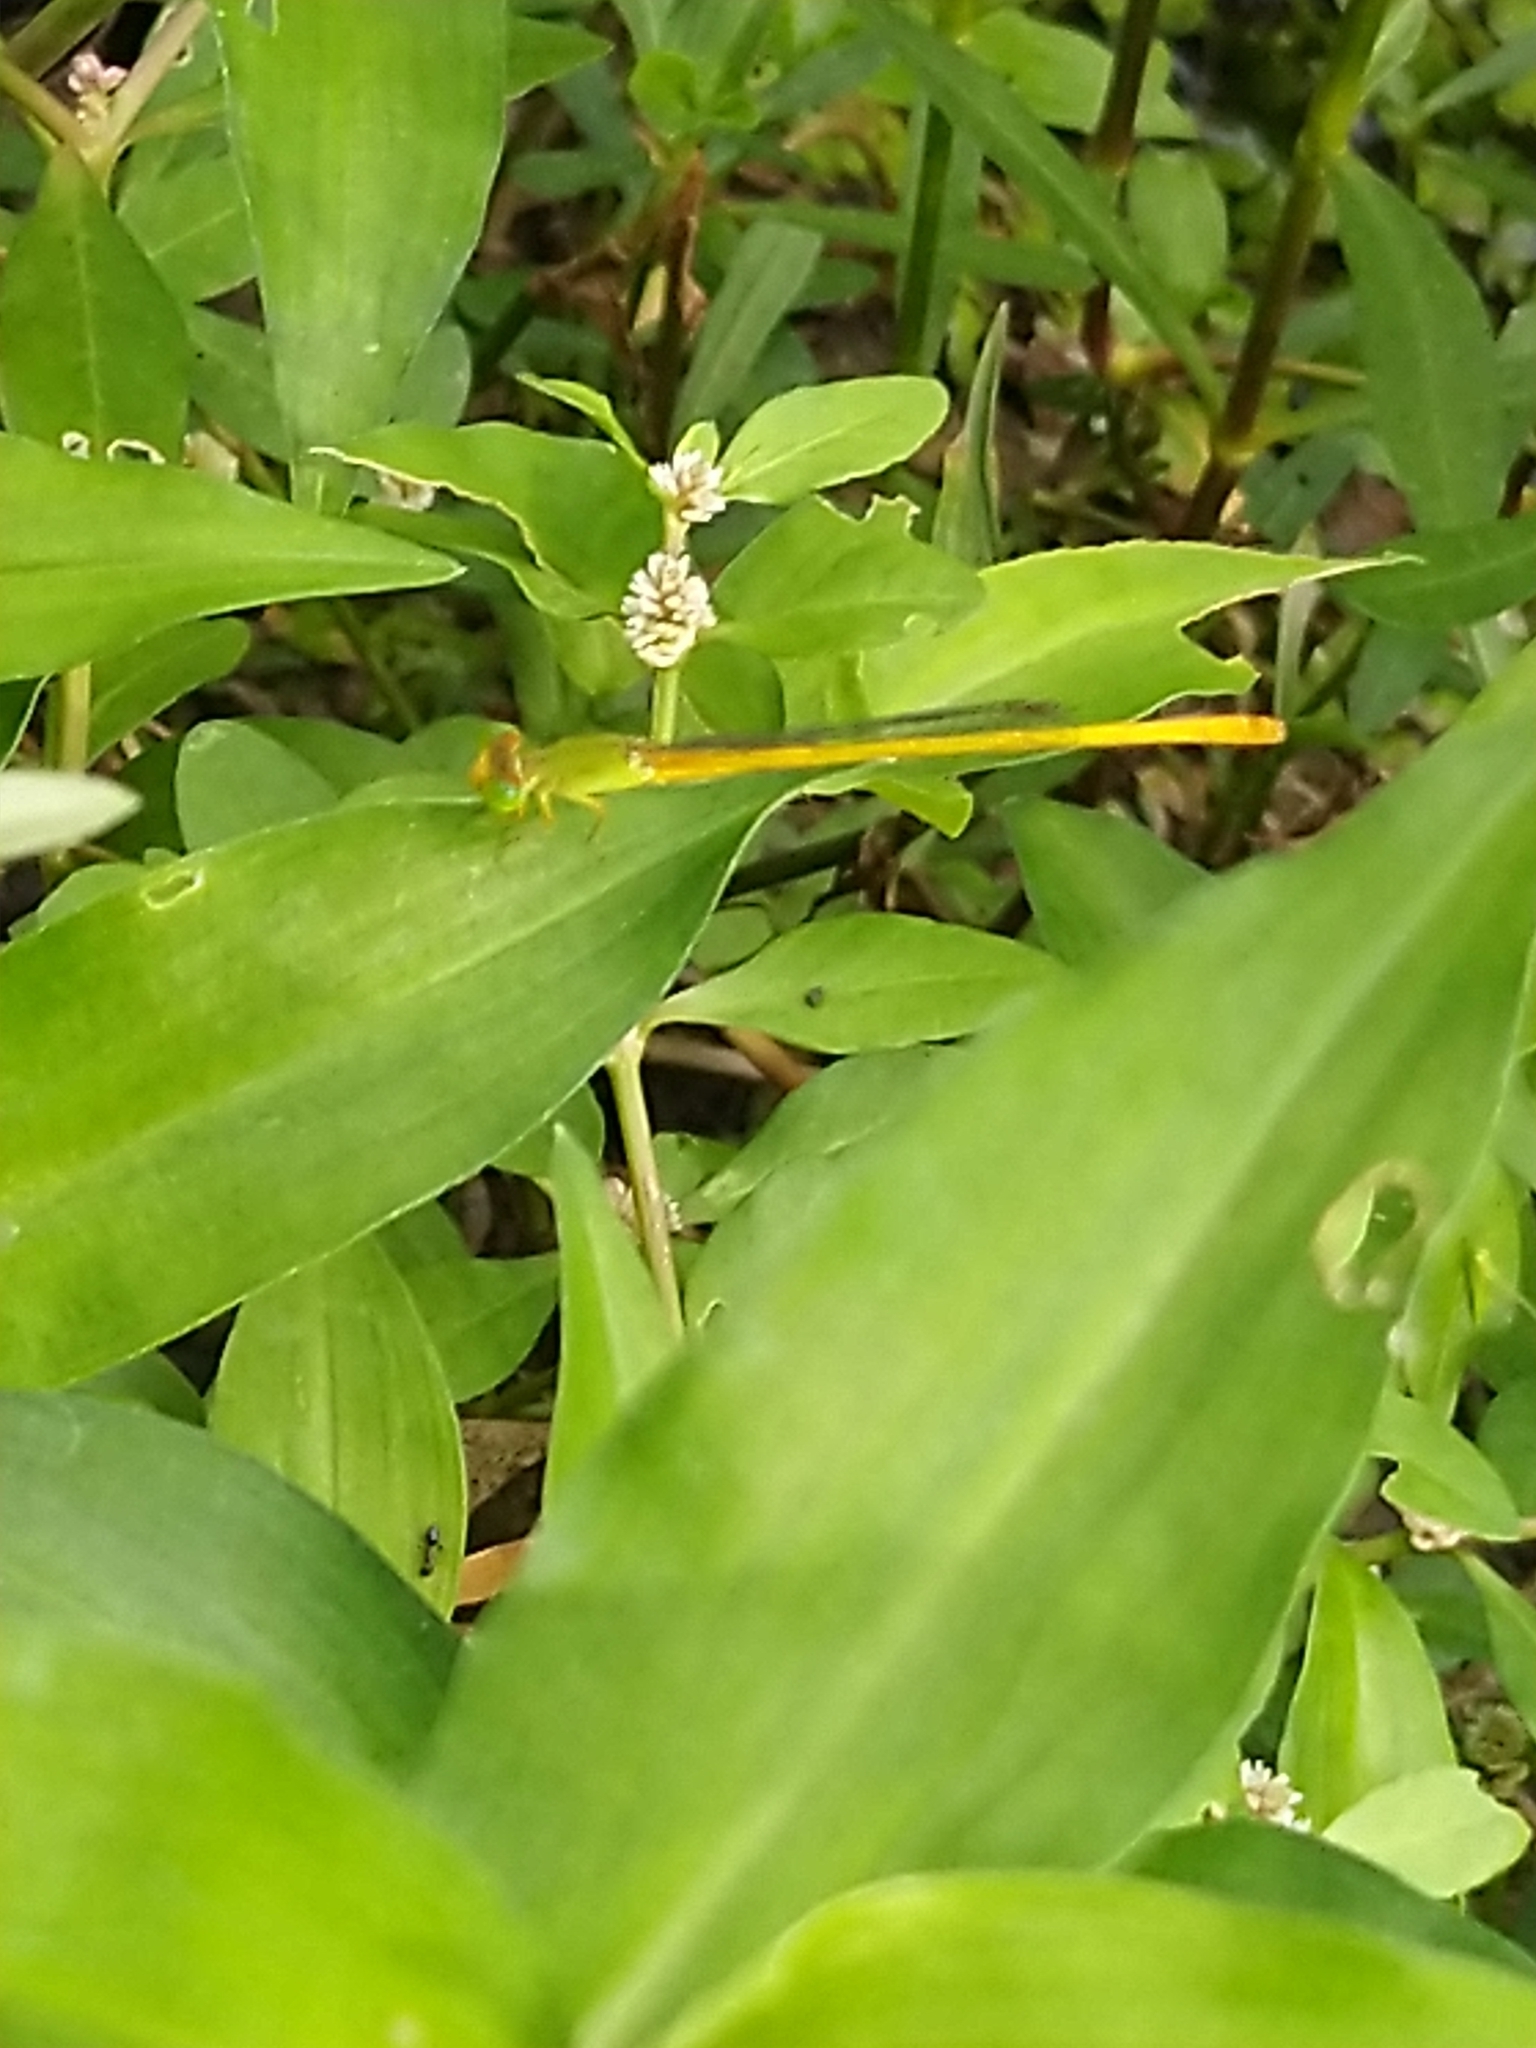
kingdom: Animalia
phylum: Arthropoda
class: Insecta
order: Odonata
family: Coenagrionidae
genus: Ceriagrion
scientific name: Ceriagrion coromandelianum
